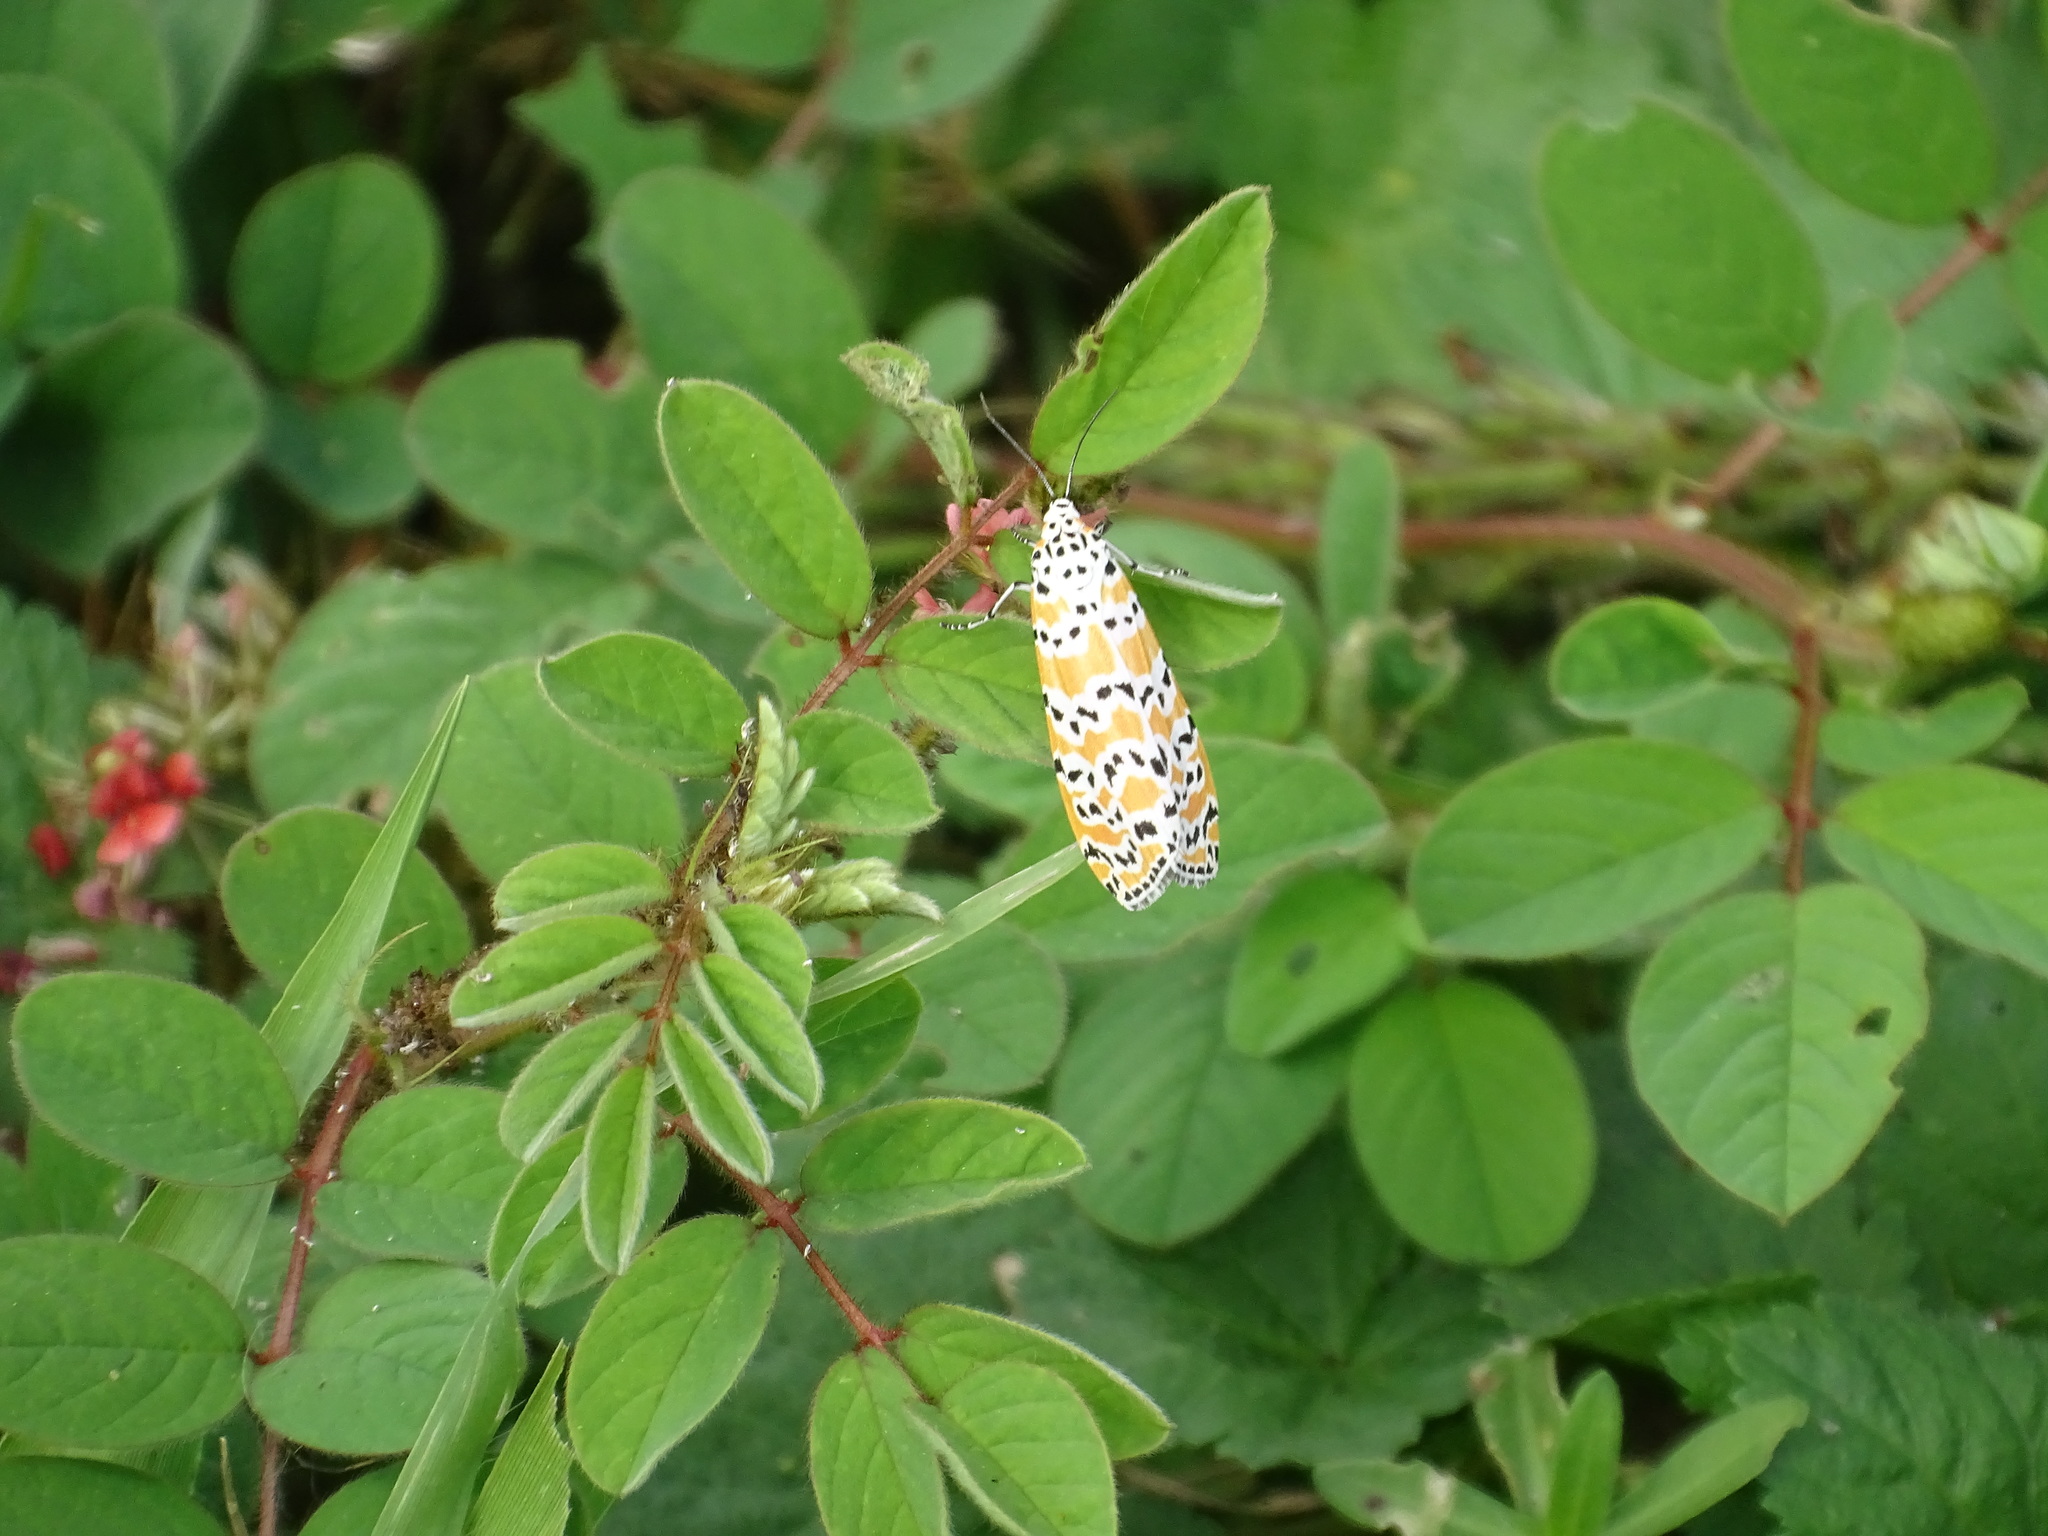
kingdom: Animalia
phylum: Arthropoda
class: Insecta
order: Lepidoptera
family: Erebidae
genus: Utetheisa
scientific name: Utetheisa ornatrix
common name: Beautiful utetheisa
